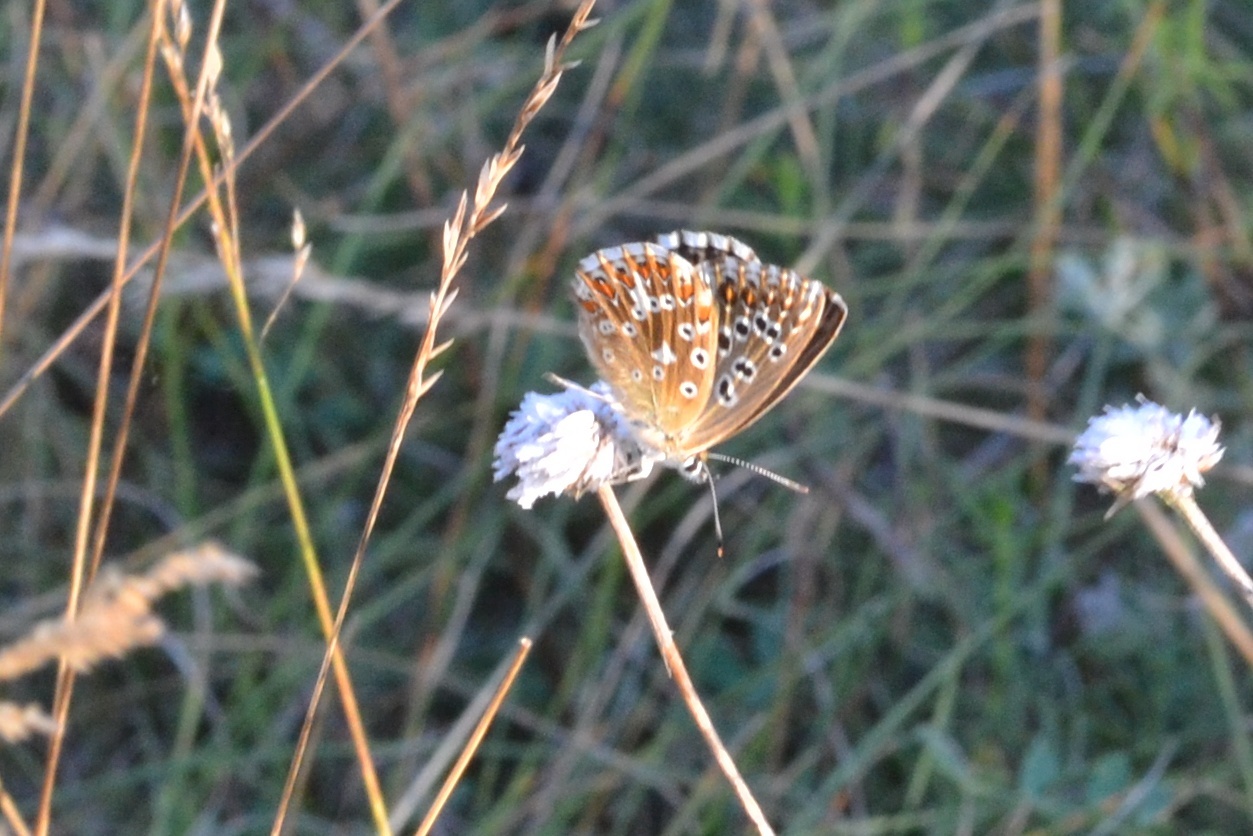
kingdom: Animalia
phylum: Arthropoda
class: Insecta
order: Lepidoptera
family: Lycaenidae
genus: Lysandra
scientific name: Lysandra coridon
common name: Chalkhill blue
